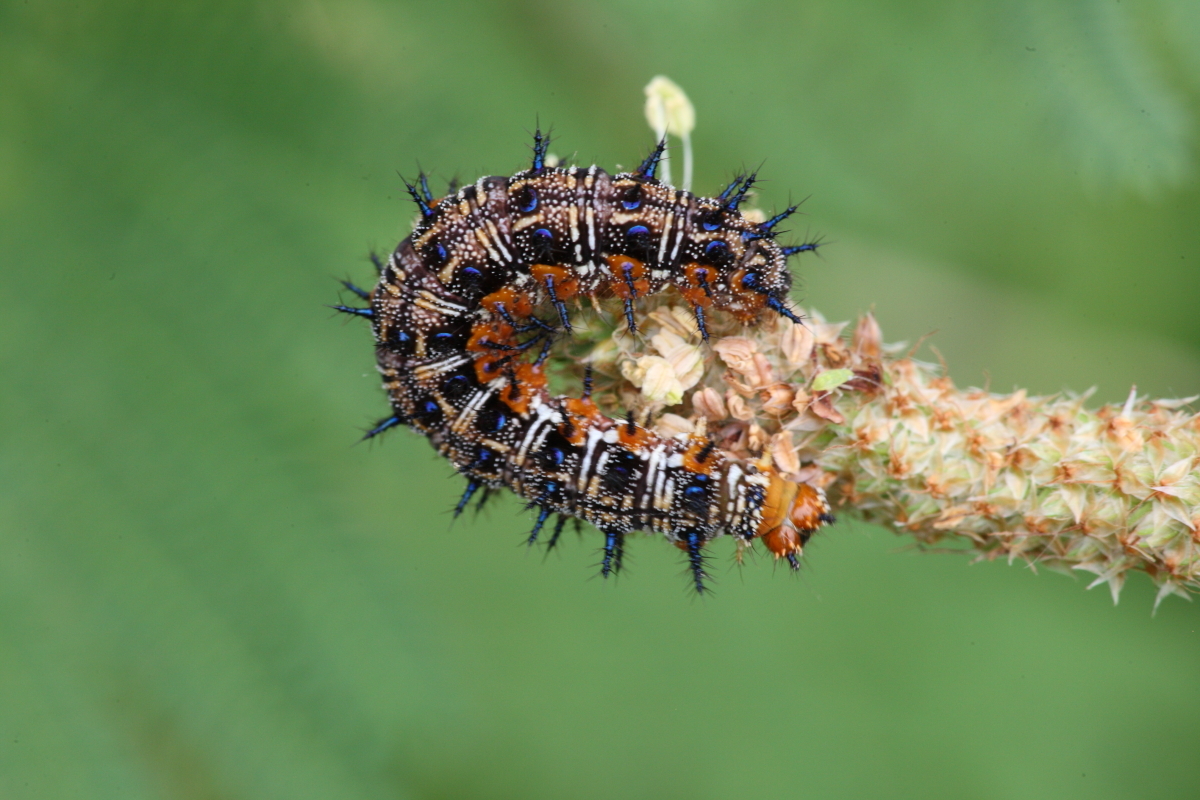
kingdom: Animalia
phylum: Arthropoda
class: Insecta
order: Lepidoptera
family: Nymphalidae
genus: Junonia
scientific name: Junonia coenia
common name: Common buckeye
